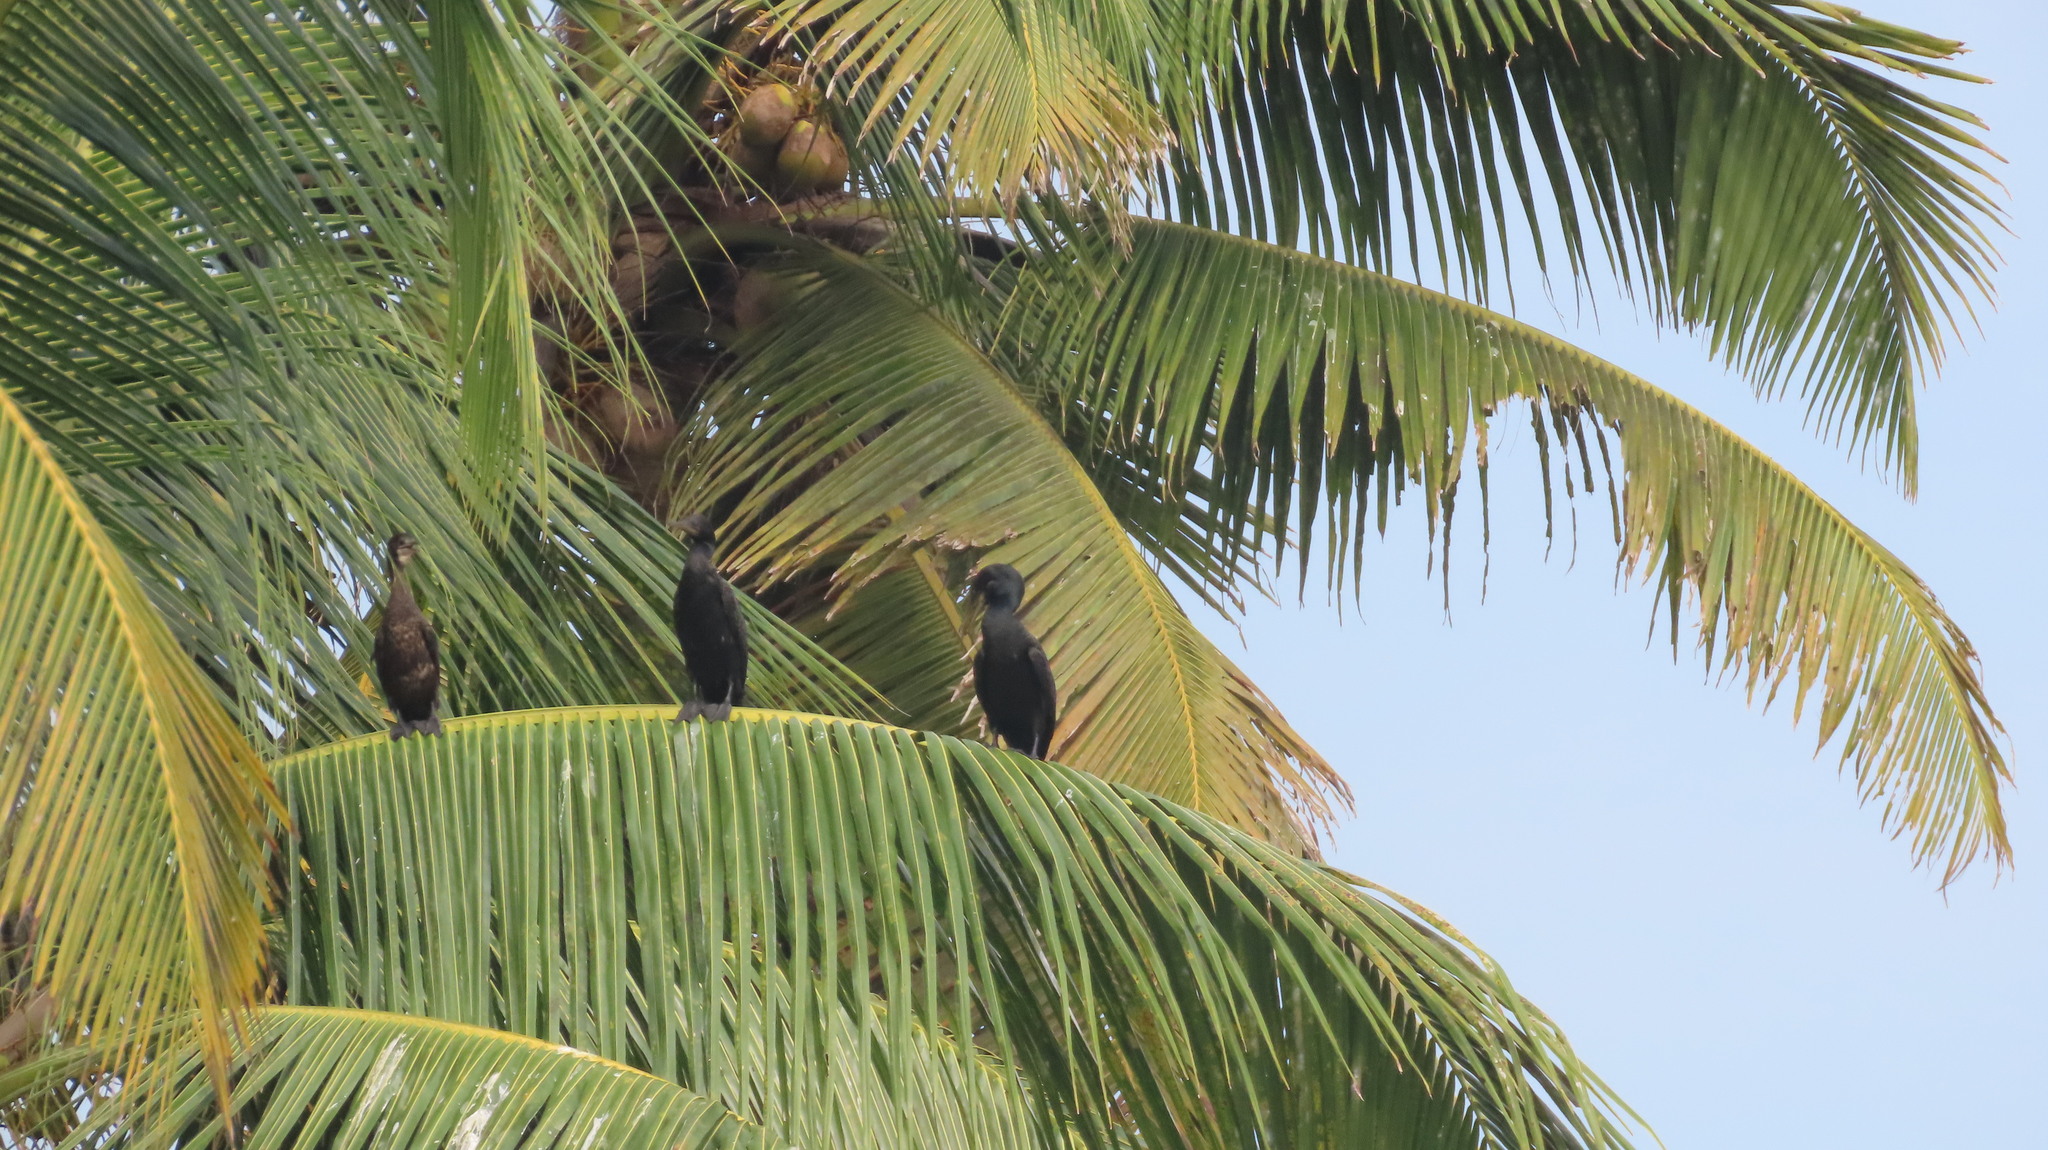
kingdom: Animalia
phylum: Chordata
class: Aves
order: Suliformes
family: Phalacrocoracidae
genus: Phalacrocorax
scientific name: Phalacrocorax fuscicollis
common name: Indian cormorant
